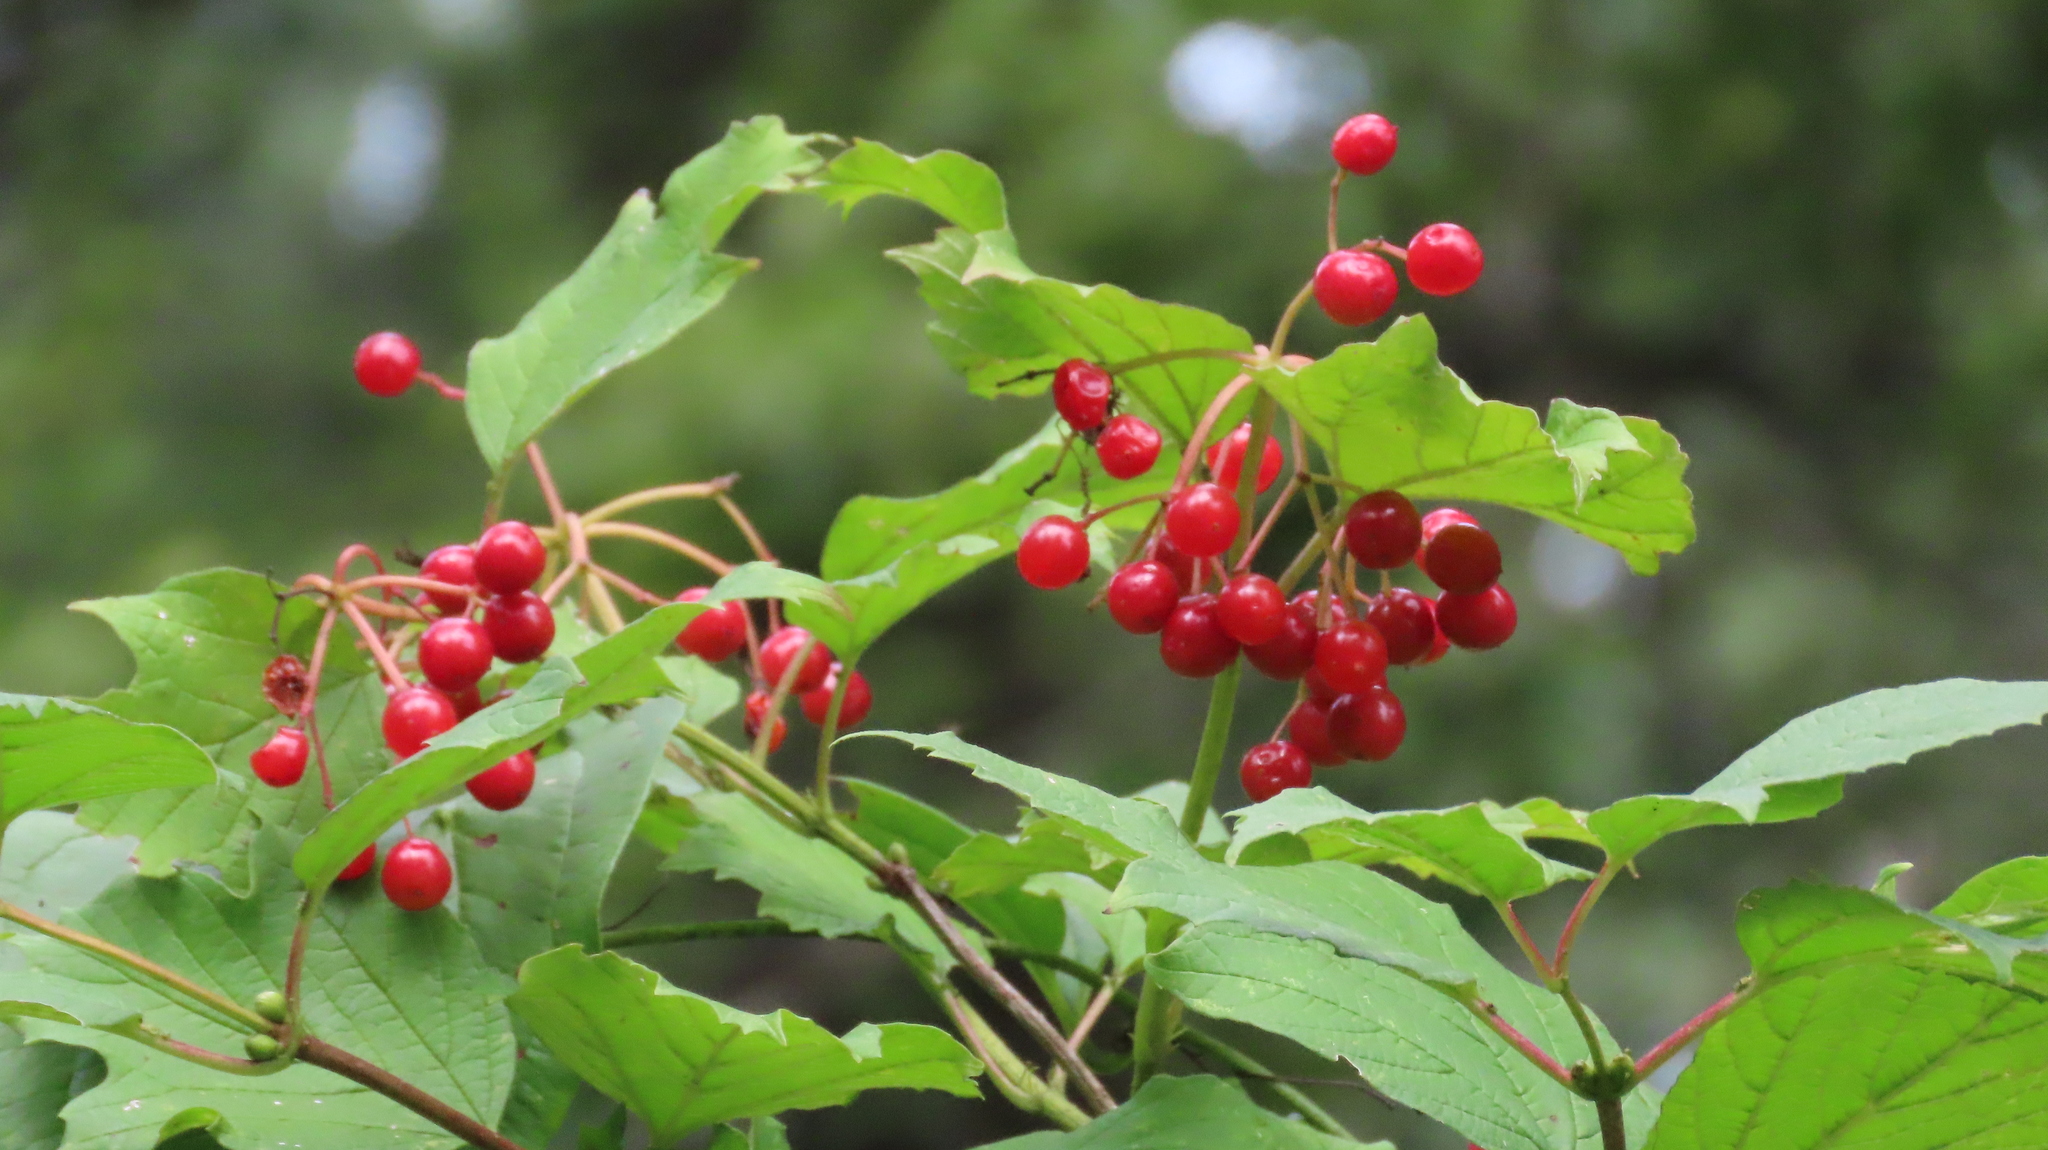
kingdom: Plantae
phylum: Tracheophyta
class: Magnoliopsida
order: Dipsacales
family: Viburnaceae
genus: Viburnum
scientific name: Viburnum opulus
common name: Guelder-rose
